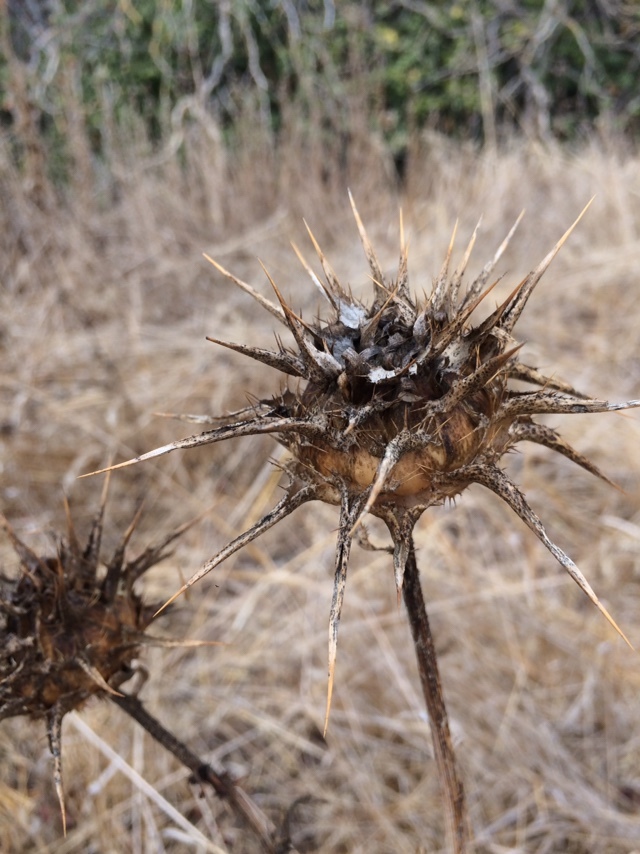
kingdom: Plantae
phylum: Tracheophyta
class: Magnoliopsida
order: Asterales
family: Asteraceae
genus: Silybum
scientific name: Silybum marianum
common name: Milk thistle
